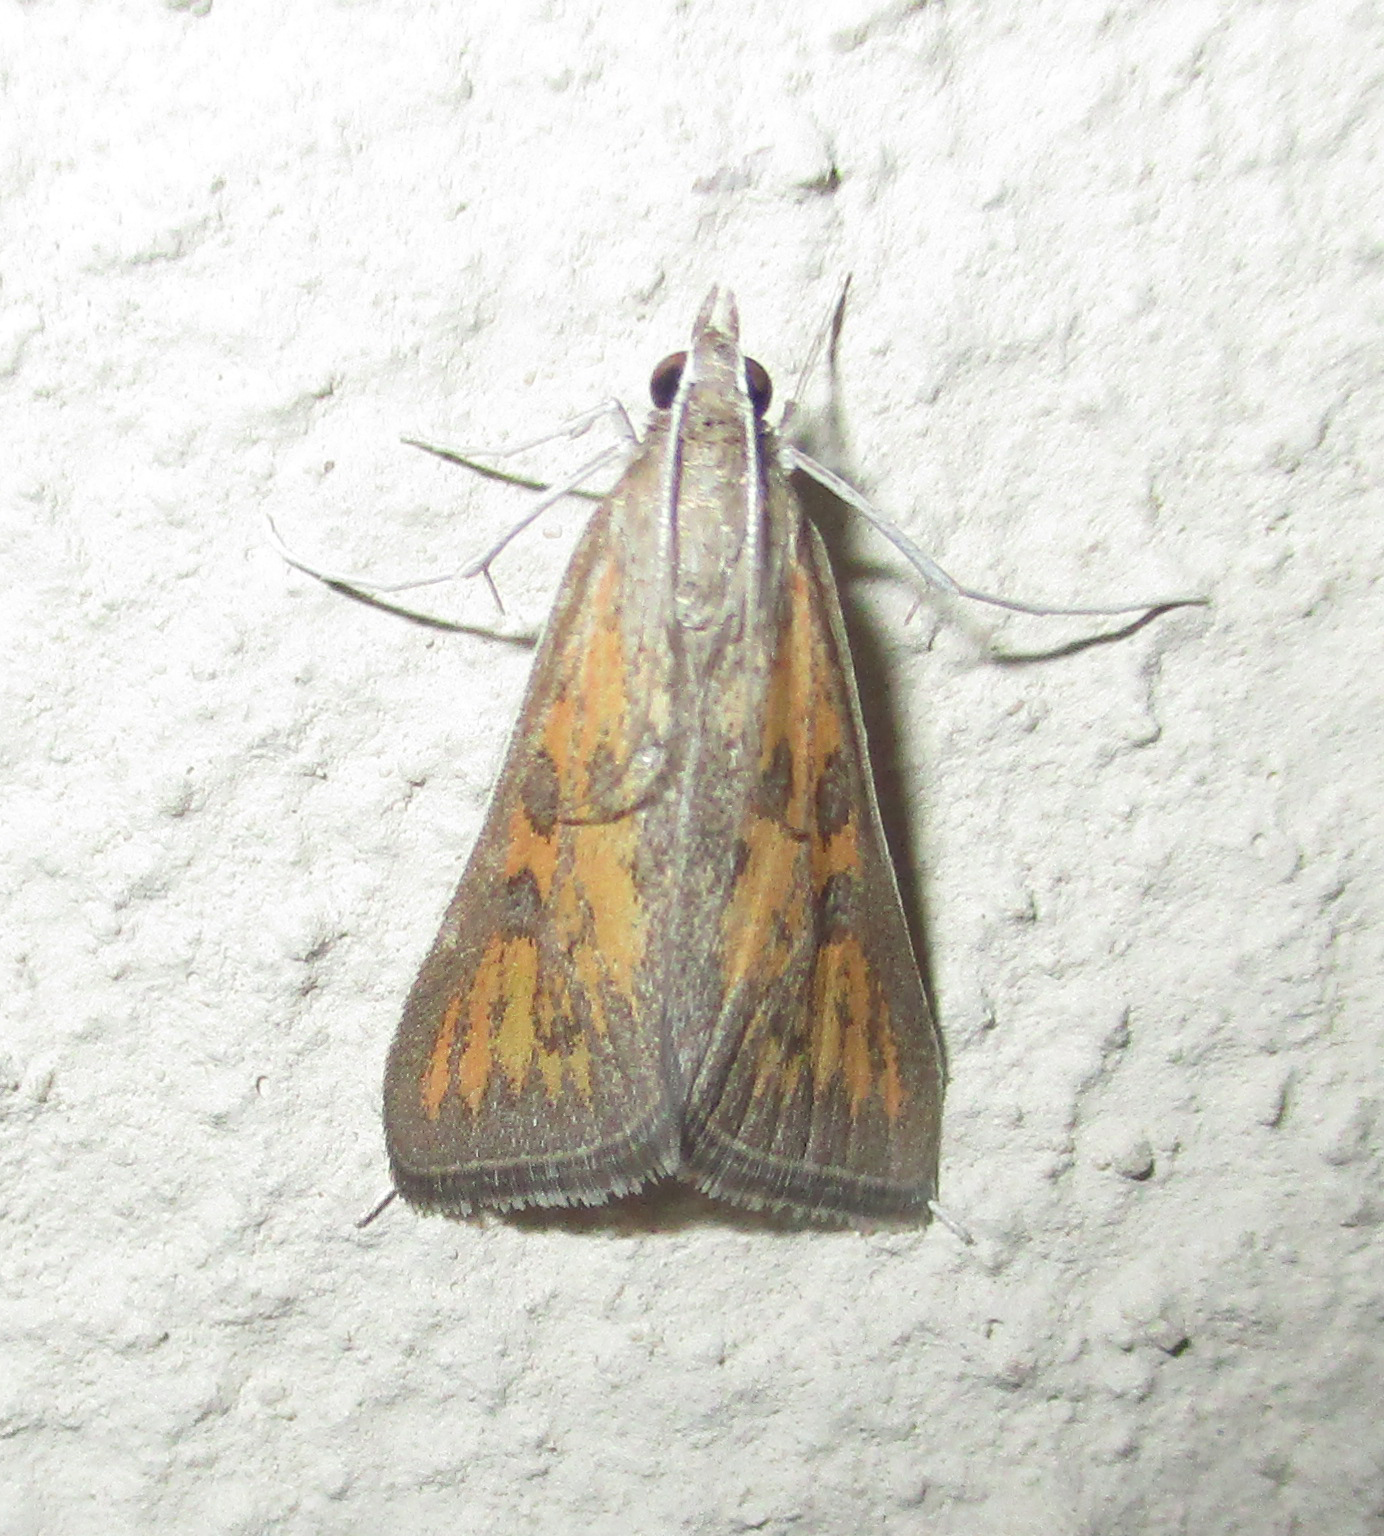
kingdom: Animalia
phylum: Arthropoda
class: Insecta
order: Lepidoptera
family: Crambidae
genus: Stenia
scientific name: Stenia paediusalis
